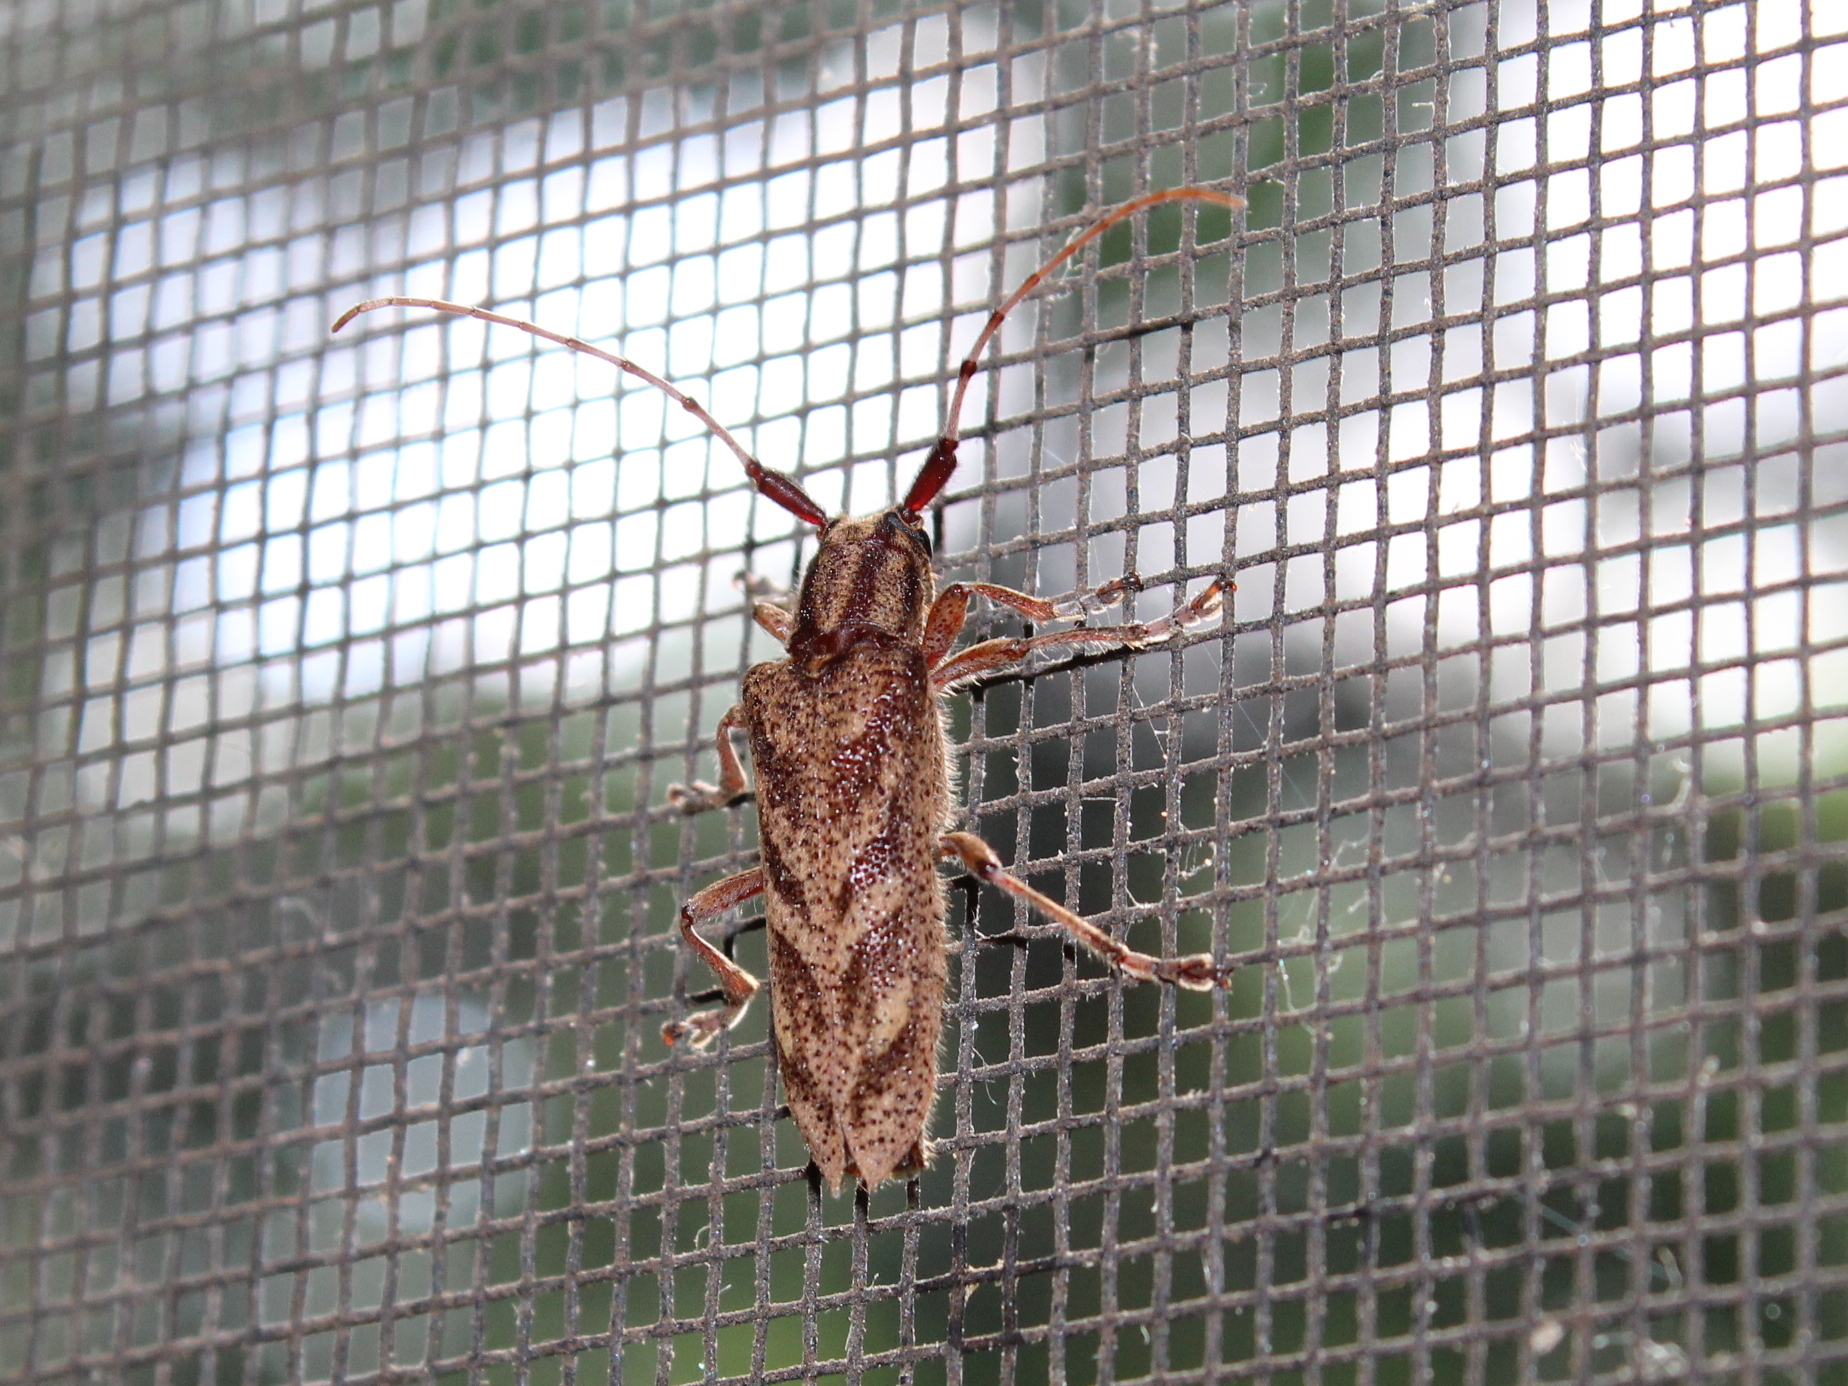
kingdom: Animalia
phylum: Arthropoda
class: Insecta
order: Coleoptera
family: Cerambycidae
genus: Saperda
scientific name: Saperda obliqua
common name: Alder borer
